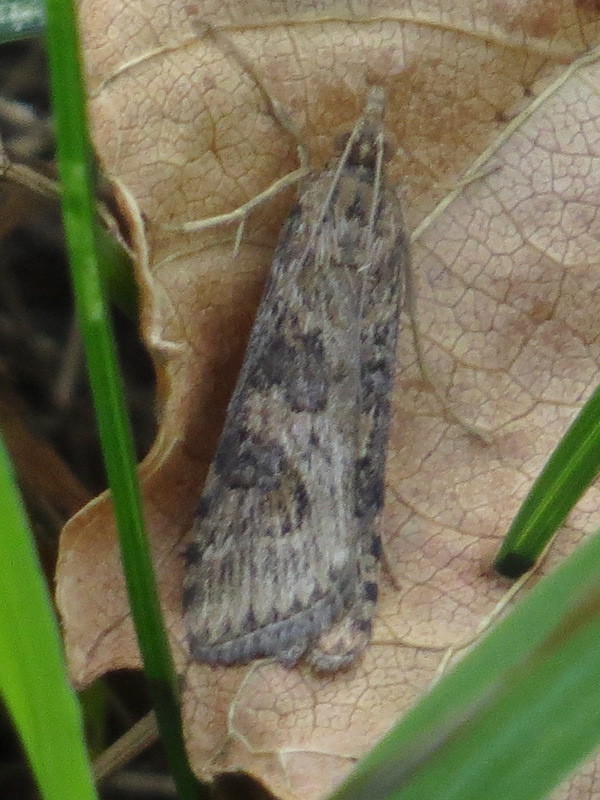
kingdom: Animalia
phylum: Arthropoda
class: Insecta
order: Lepidoptera
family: Crambidae
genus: Nomophila
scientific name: Nomophila nearctica
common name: American rush veneer
